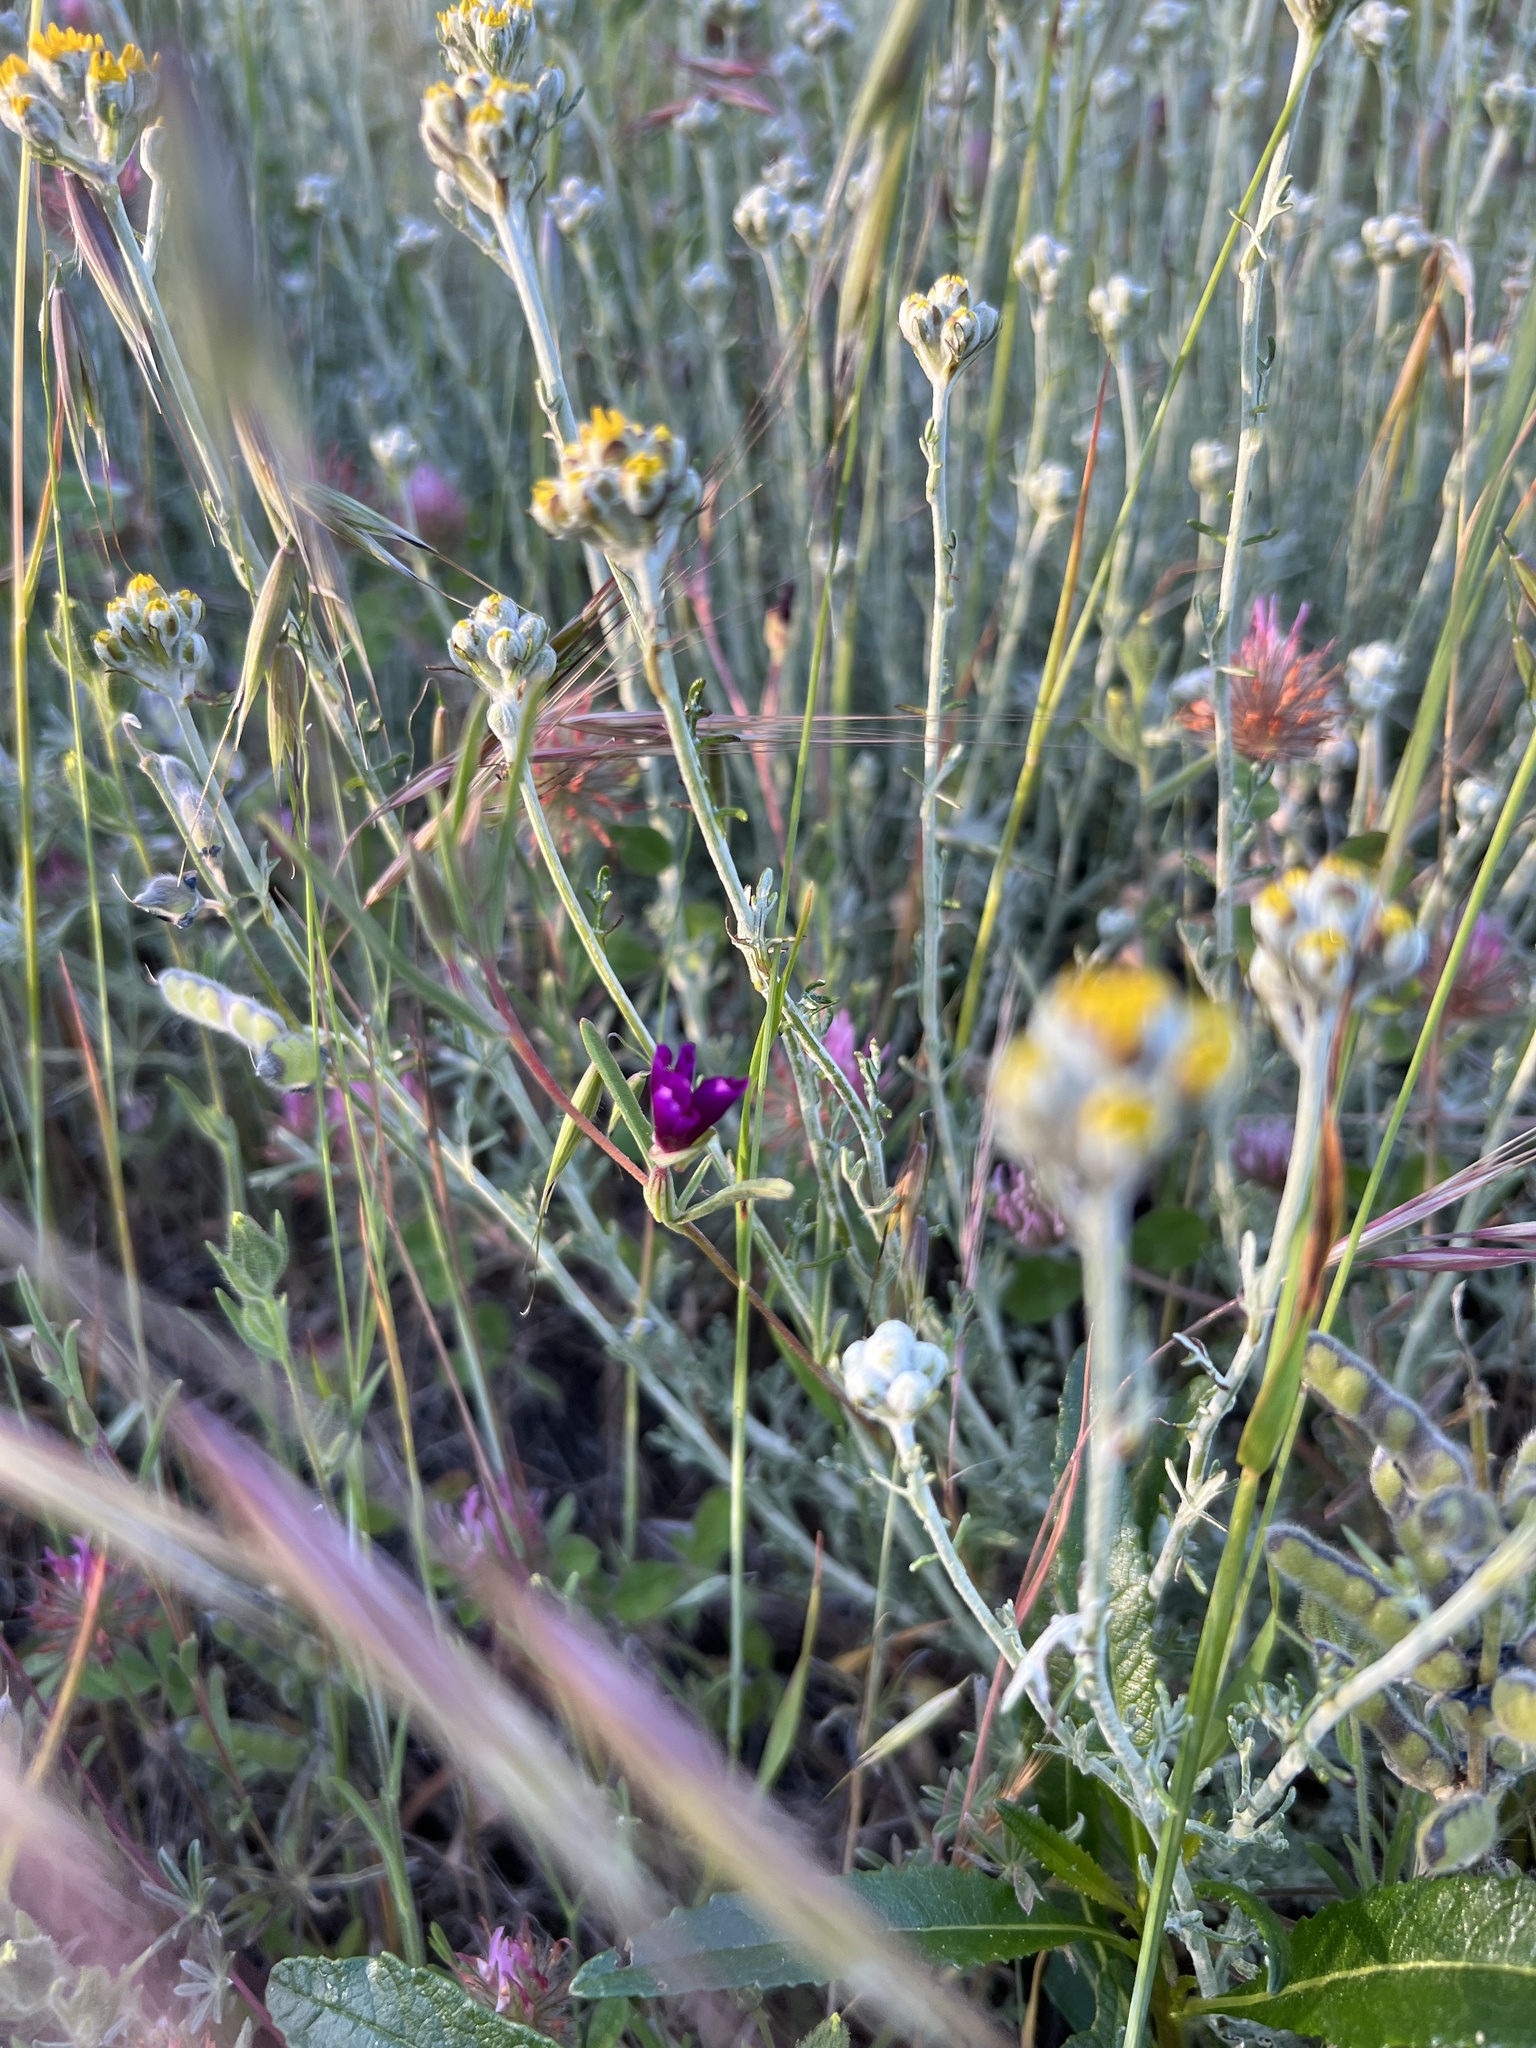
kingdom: Plantae
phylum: Tracheophyta
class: Magnoliopsida
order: Myrtales
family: Onagraceae
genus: Clarkia
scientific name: Clarkia purpurea
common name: Purple clarkia
